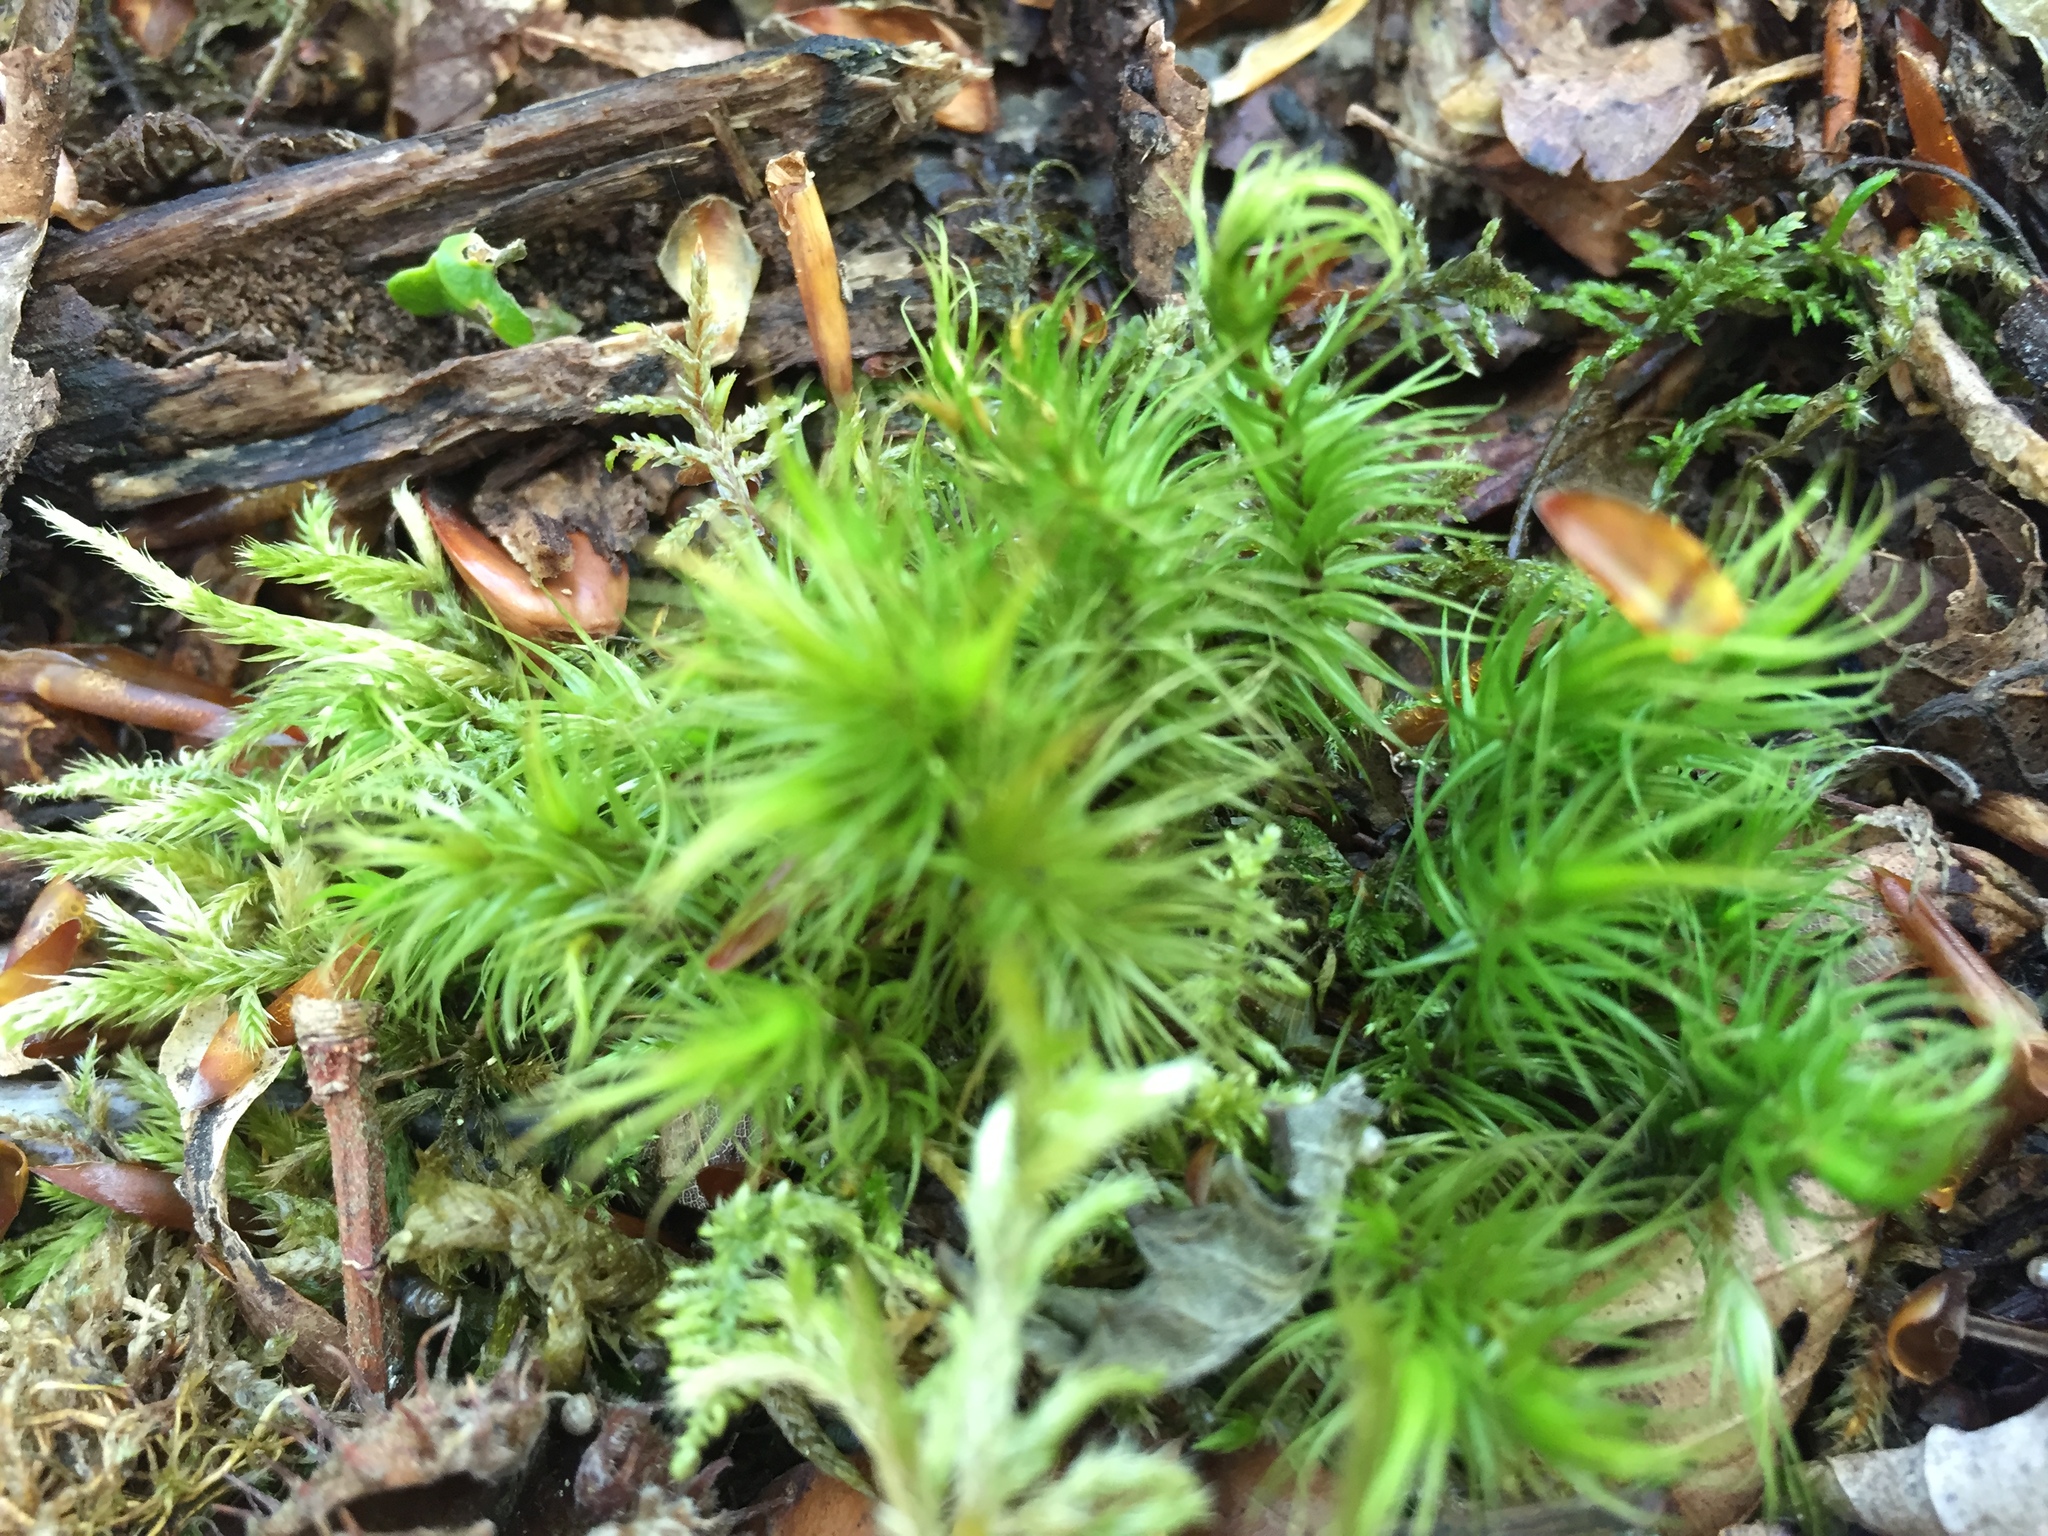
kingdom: Plantae
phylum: Bryophyta
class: Bryopsida
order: Dicranales
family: Dicranaceae
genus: Dicranum
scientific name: Dicranum scoparium
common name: Broom fork-moss
